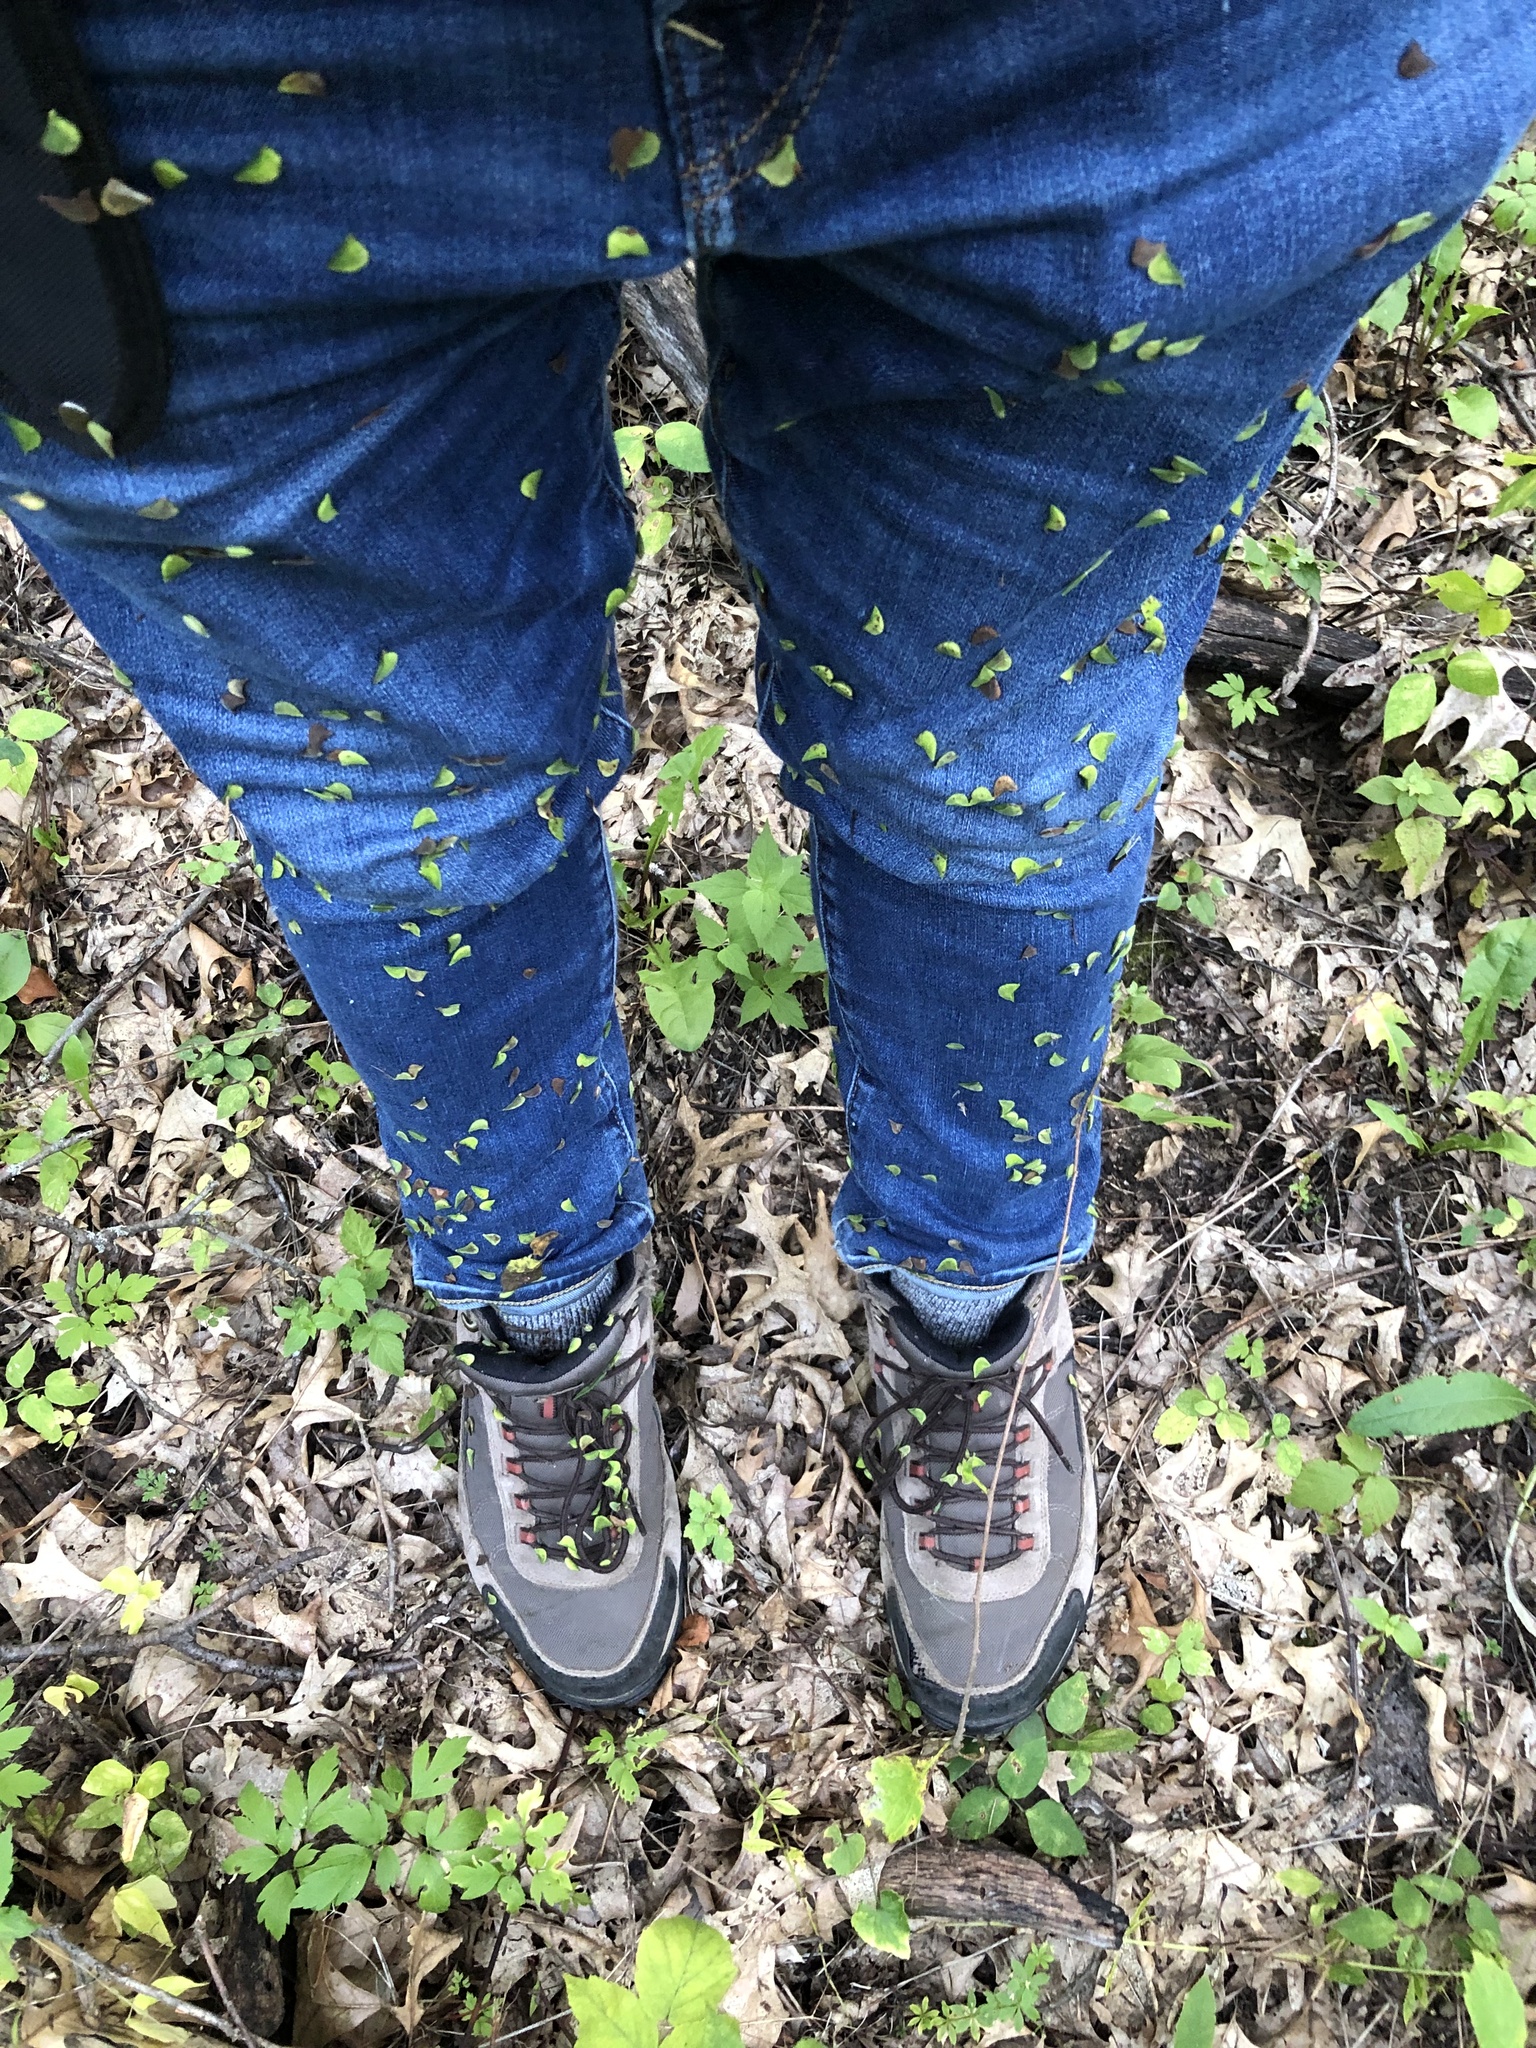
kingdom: Plantae
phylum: Tracheophyta
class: Magnoliopsida
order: Fabales
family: Fabaceae
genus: Hylodesmum
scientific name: Hylodesmum
